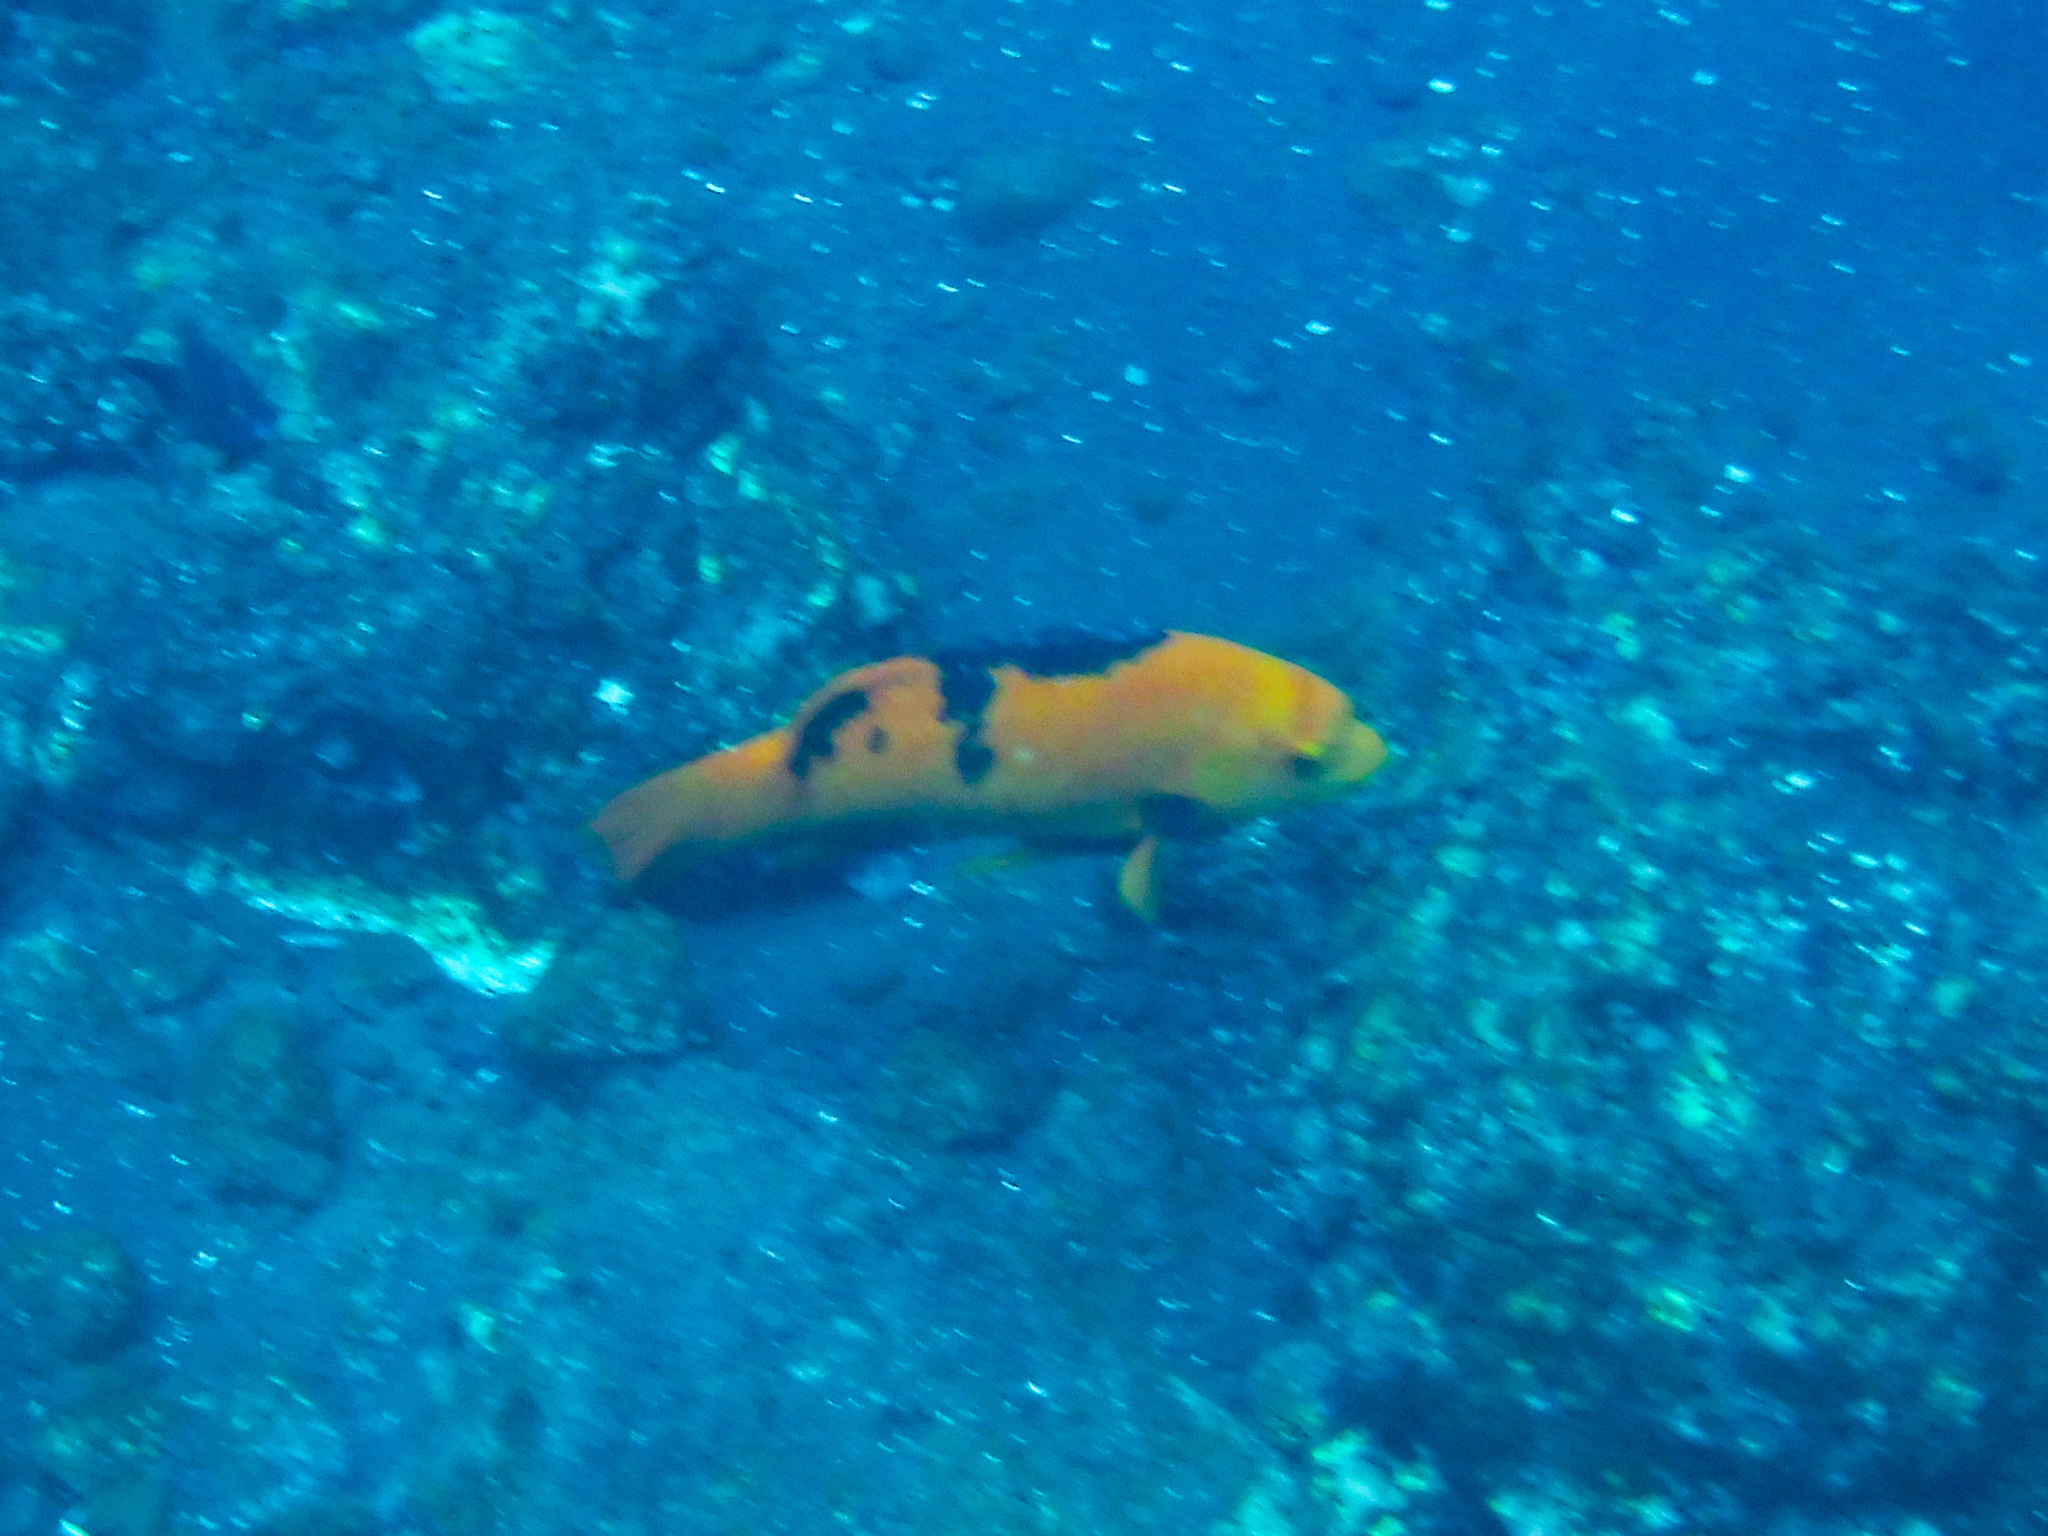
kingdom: Animalia
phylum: Chordata
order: Perciformes
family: Labridae
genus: Bodianus
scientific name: Bodianus eclancheri
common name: Harlequin wrasse
